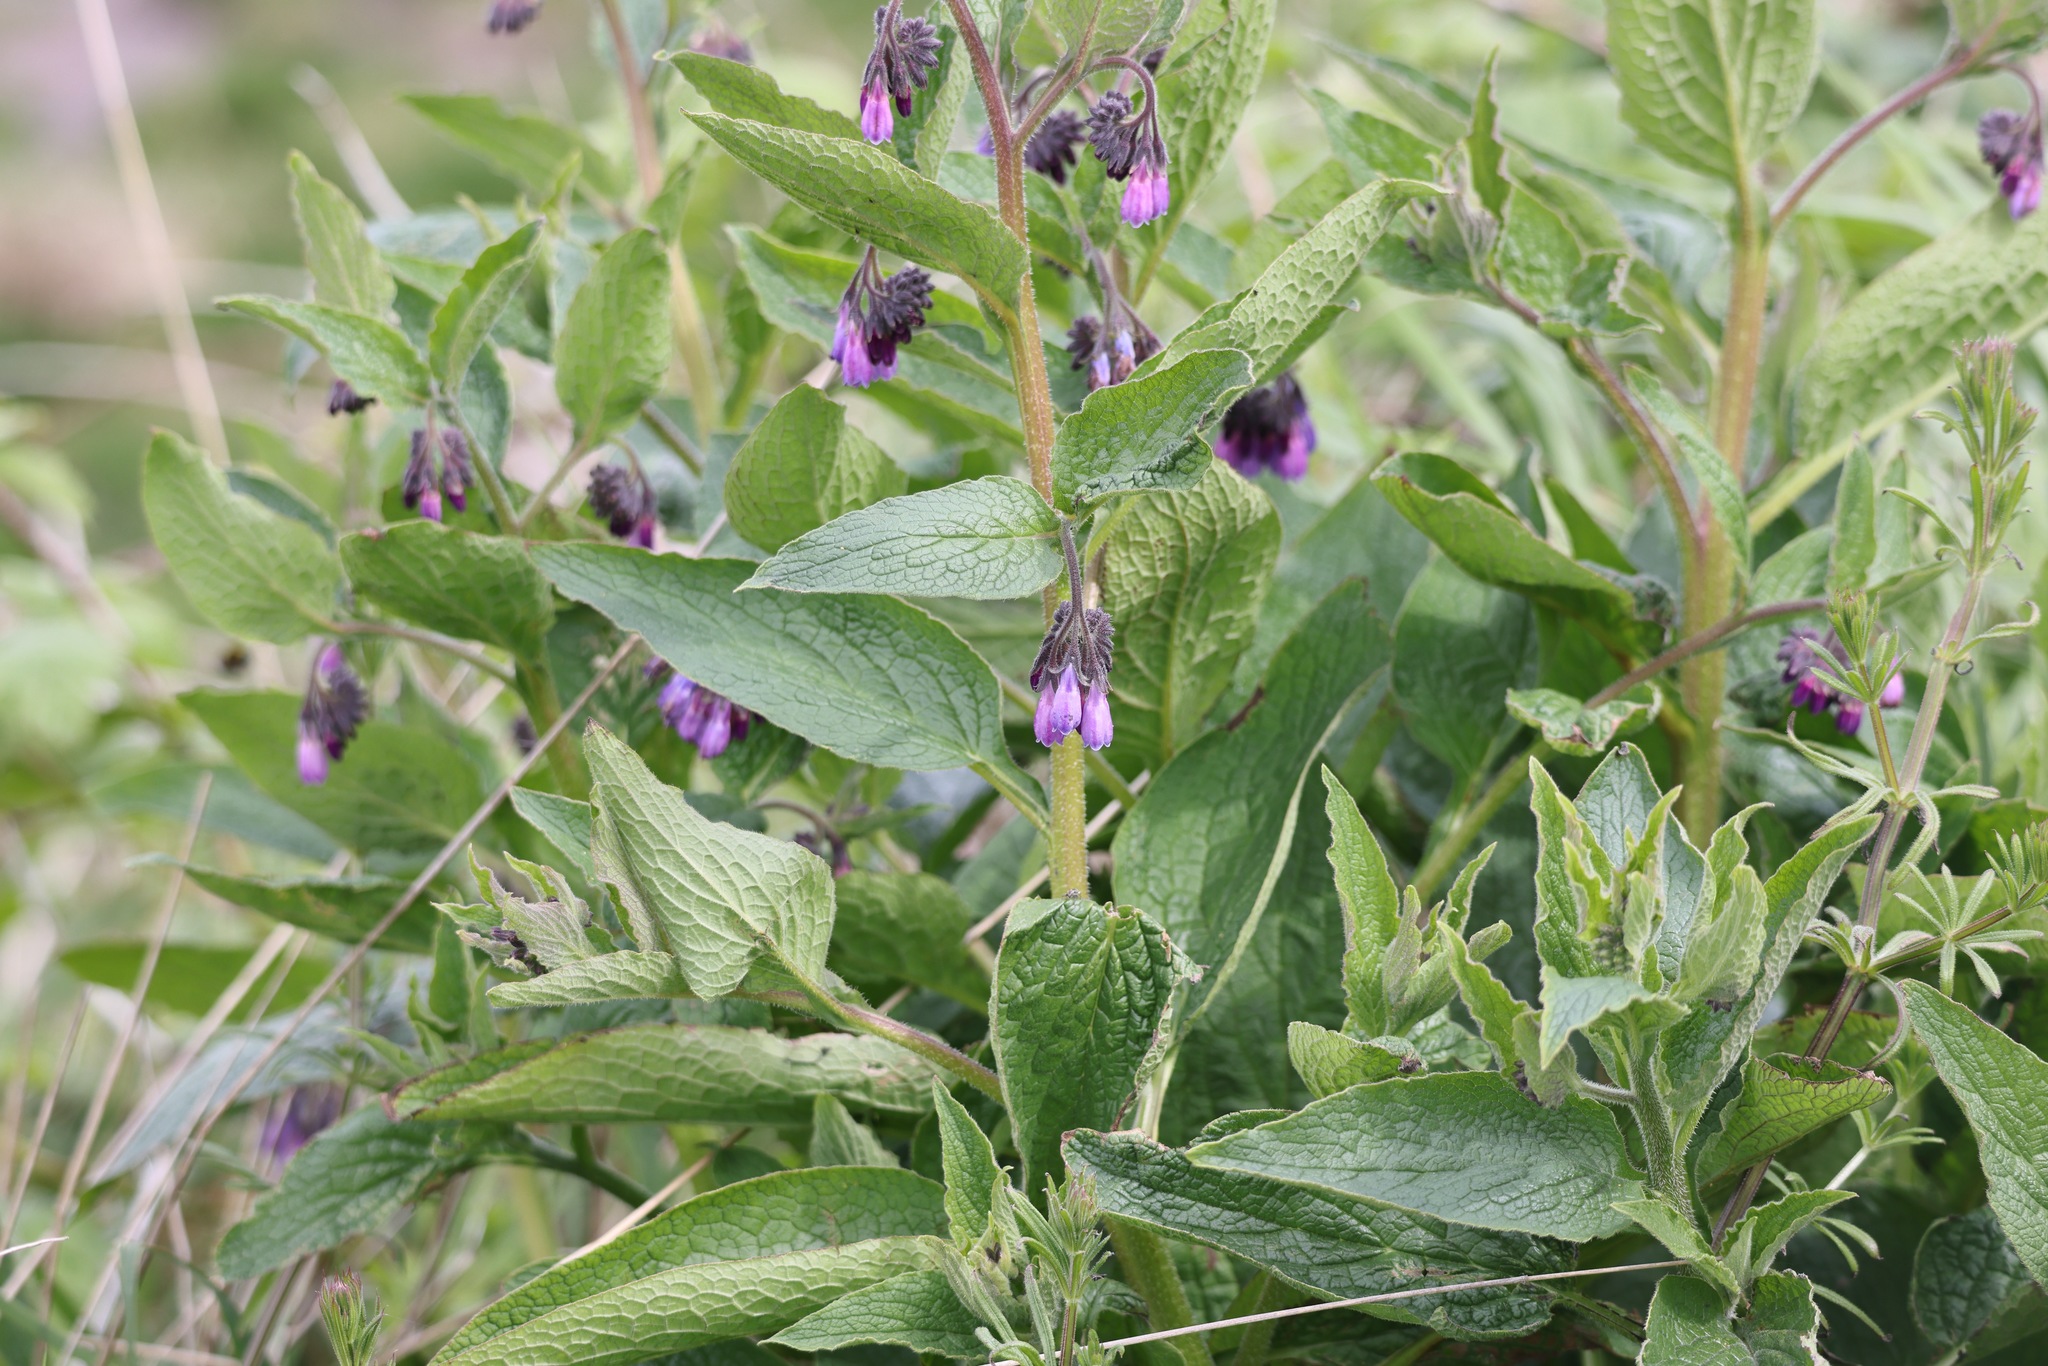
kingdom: Plantae
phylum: Tracheophyta
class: Magnoliopsida
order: Boraginales
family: Boraginaceae
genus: Symphytum
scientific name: Symphytum uplandicum
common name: Russian comfrey
